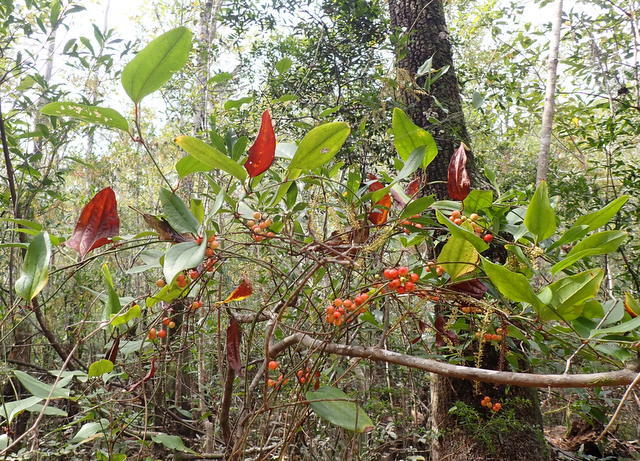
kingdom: Plantae
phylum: Tracheophyta
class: Liliopsida
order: Liliales
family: Smilacaceae
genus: Smilax
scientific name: Smilax walteri
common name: Coral greenbrier
